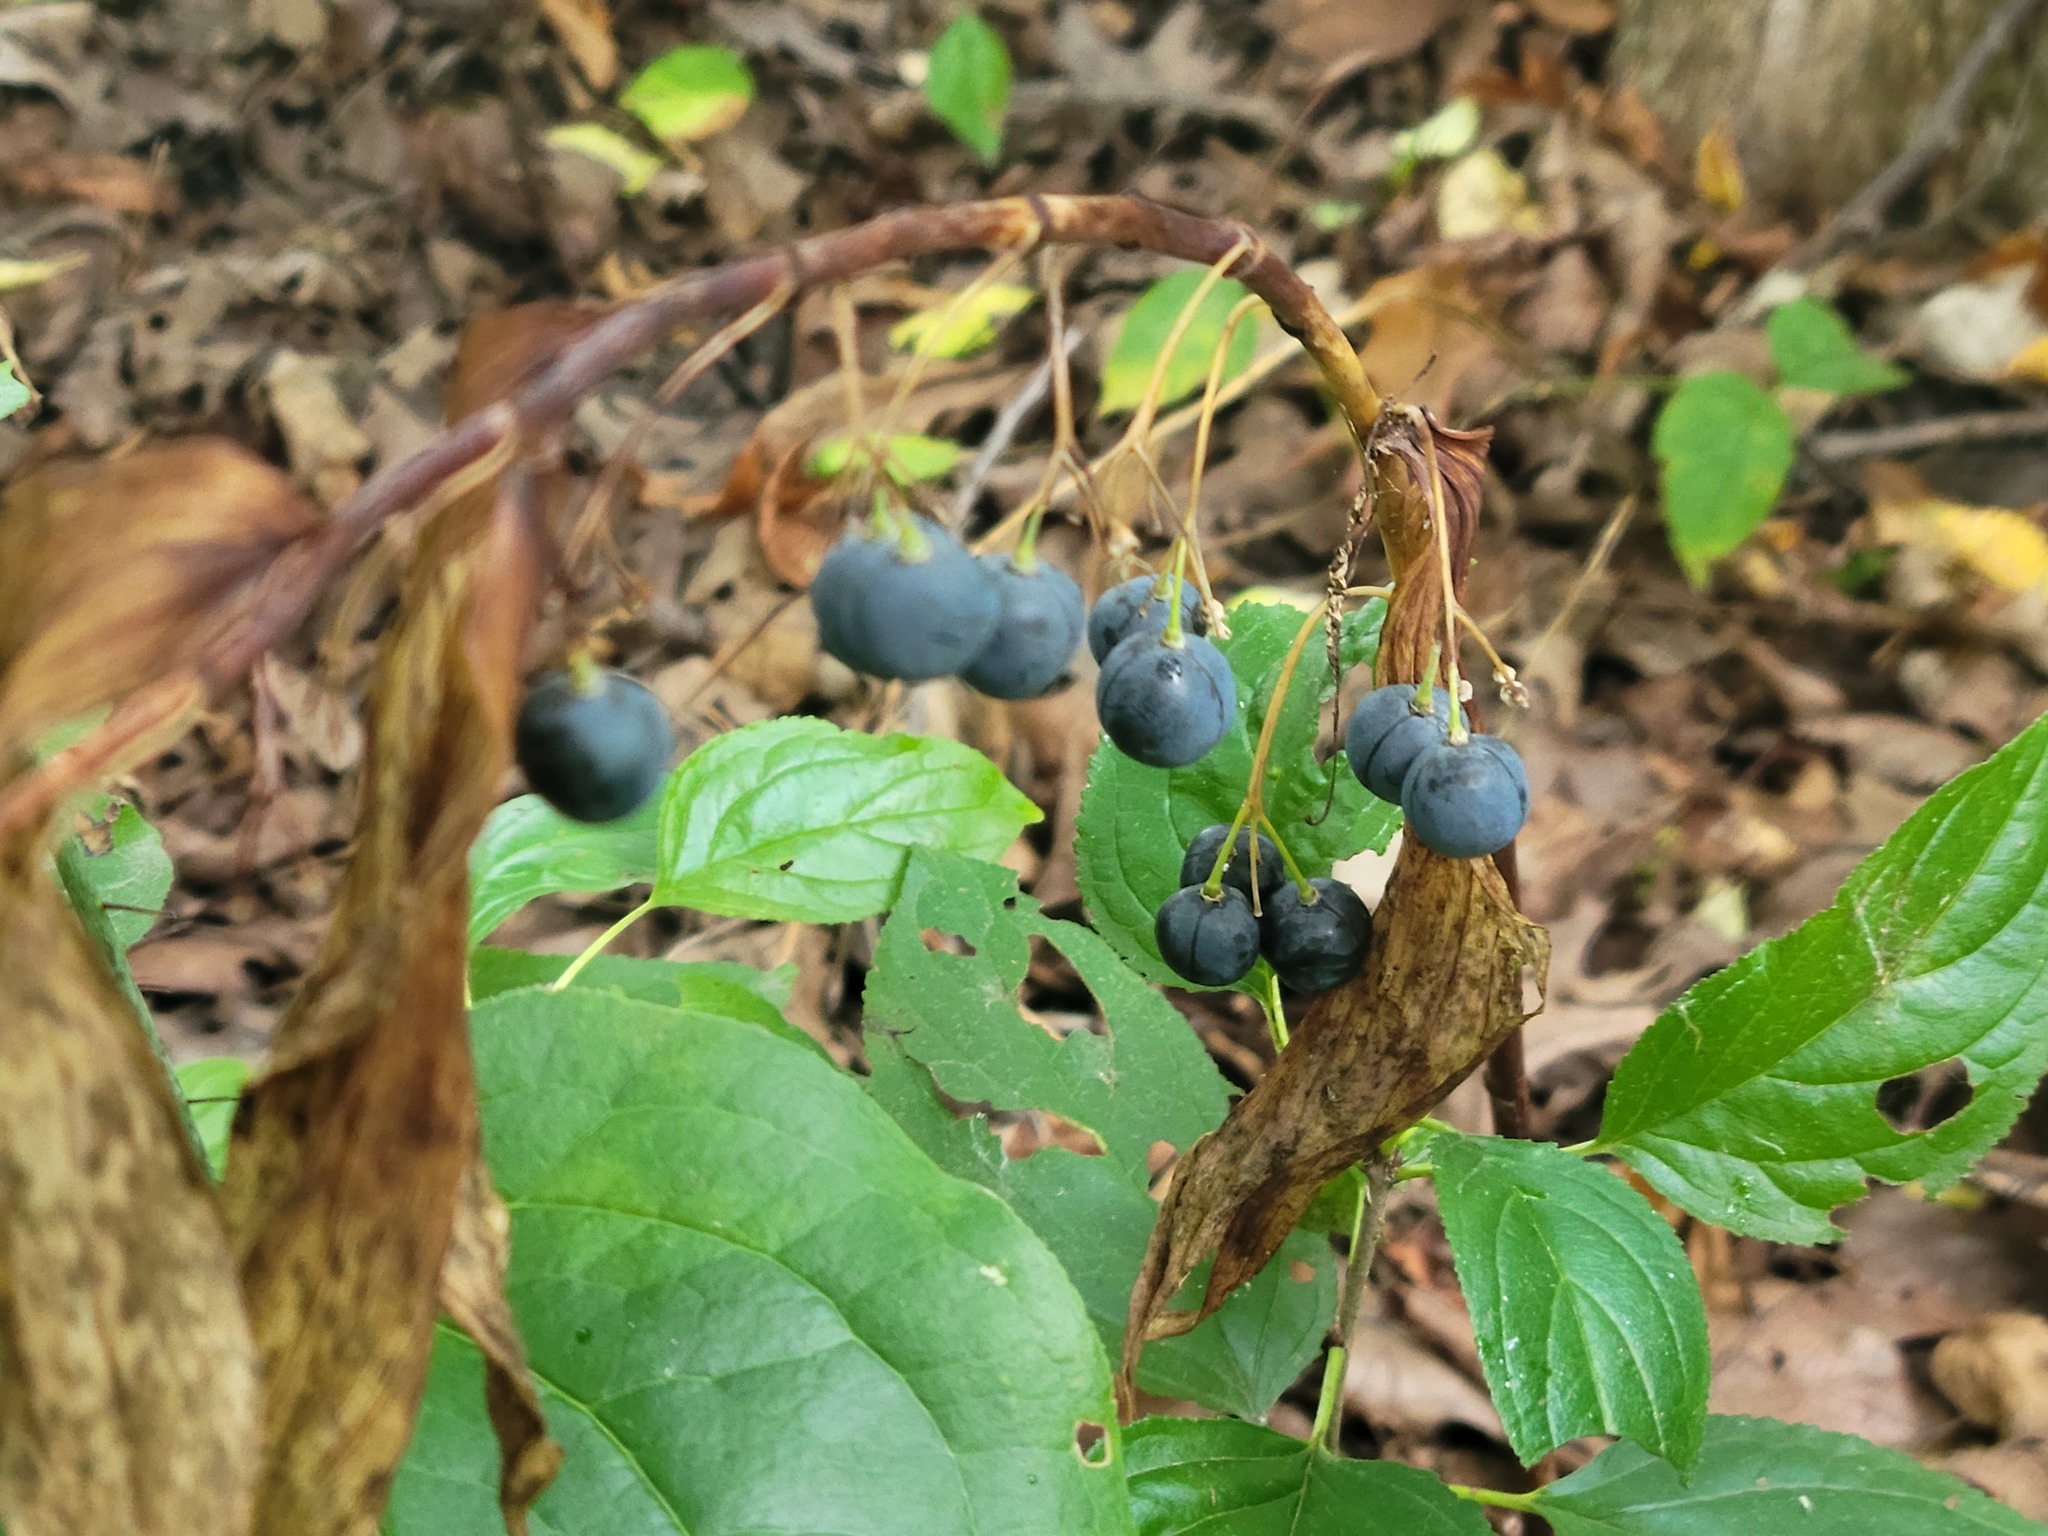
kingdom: Plantae
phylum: Tracheophyta
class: Liliopsida
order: Asparagales
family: Asparagaceae
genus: Polygonatum
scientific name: Polygonatum biflorum
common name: American solomon's-seal
